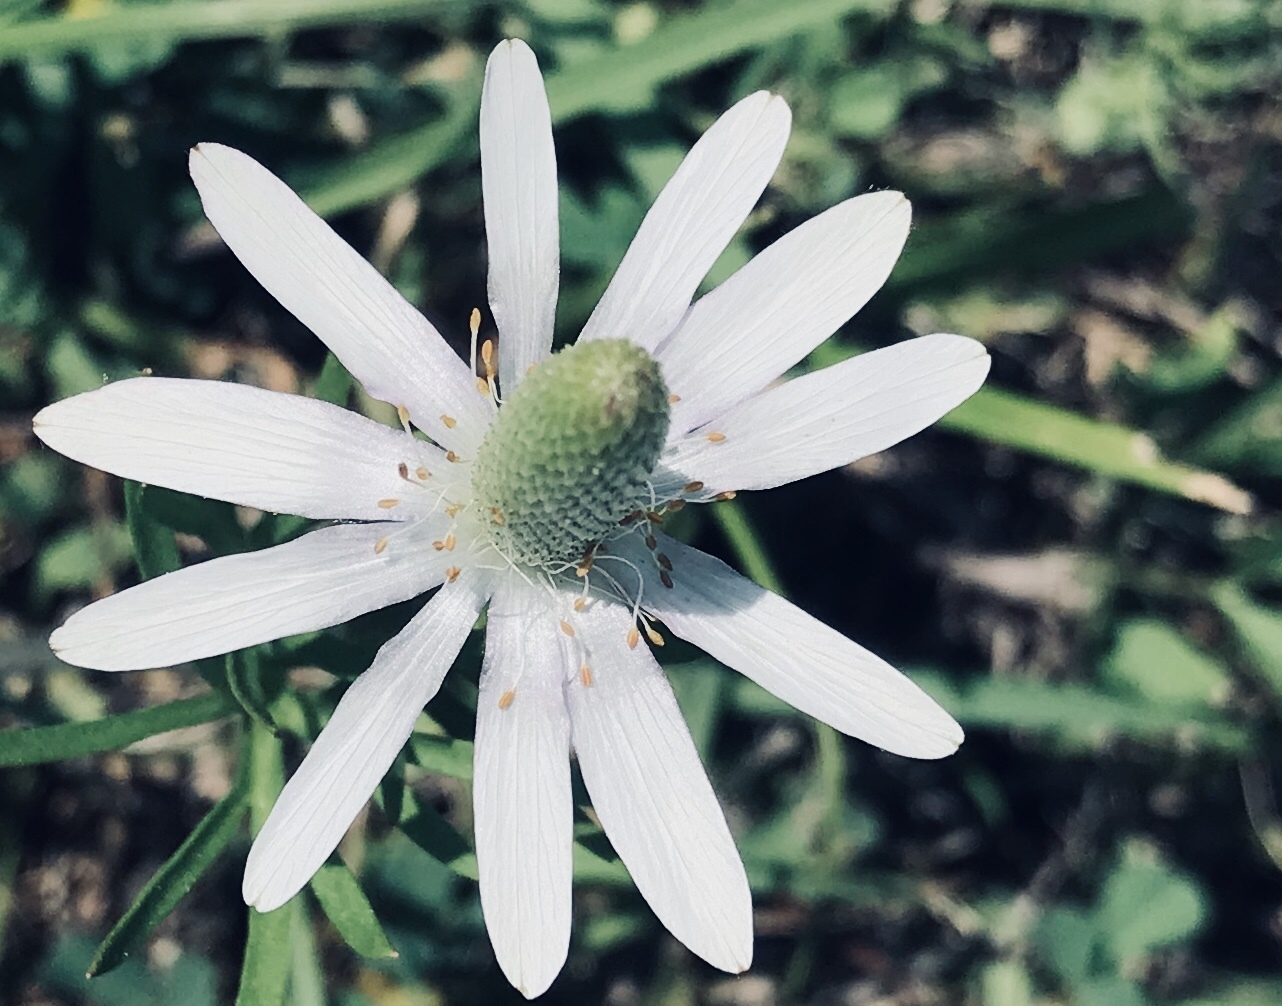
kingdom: Plantae
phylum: Tracheophyta
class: Magnoliopsida
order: Ranunculales
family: Ranunculaceae
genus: Anemone
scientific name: Anemone berlandieri
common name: Ten-petal anemone
